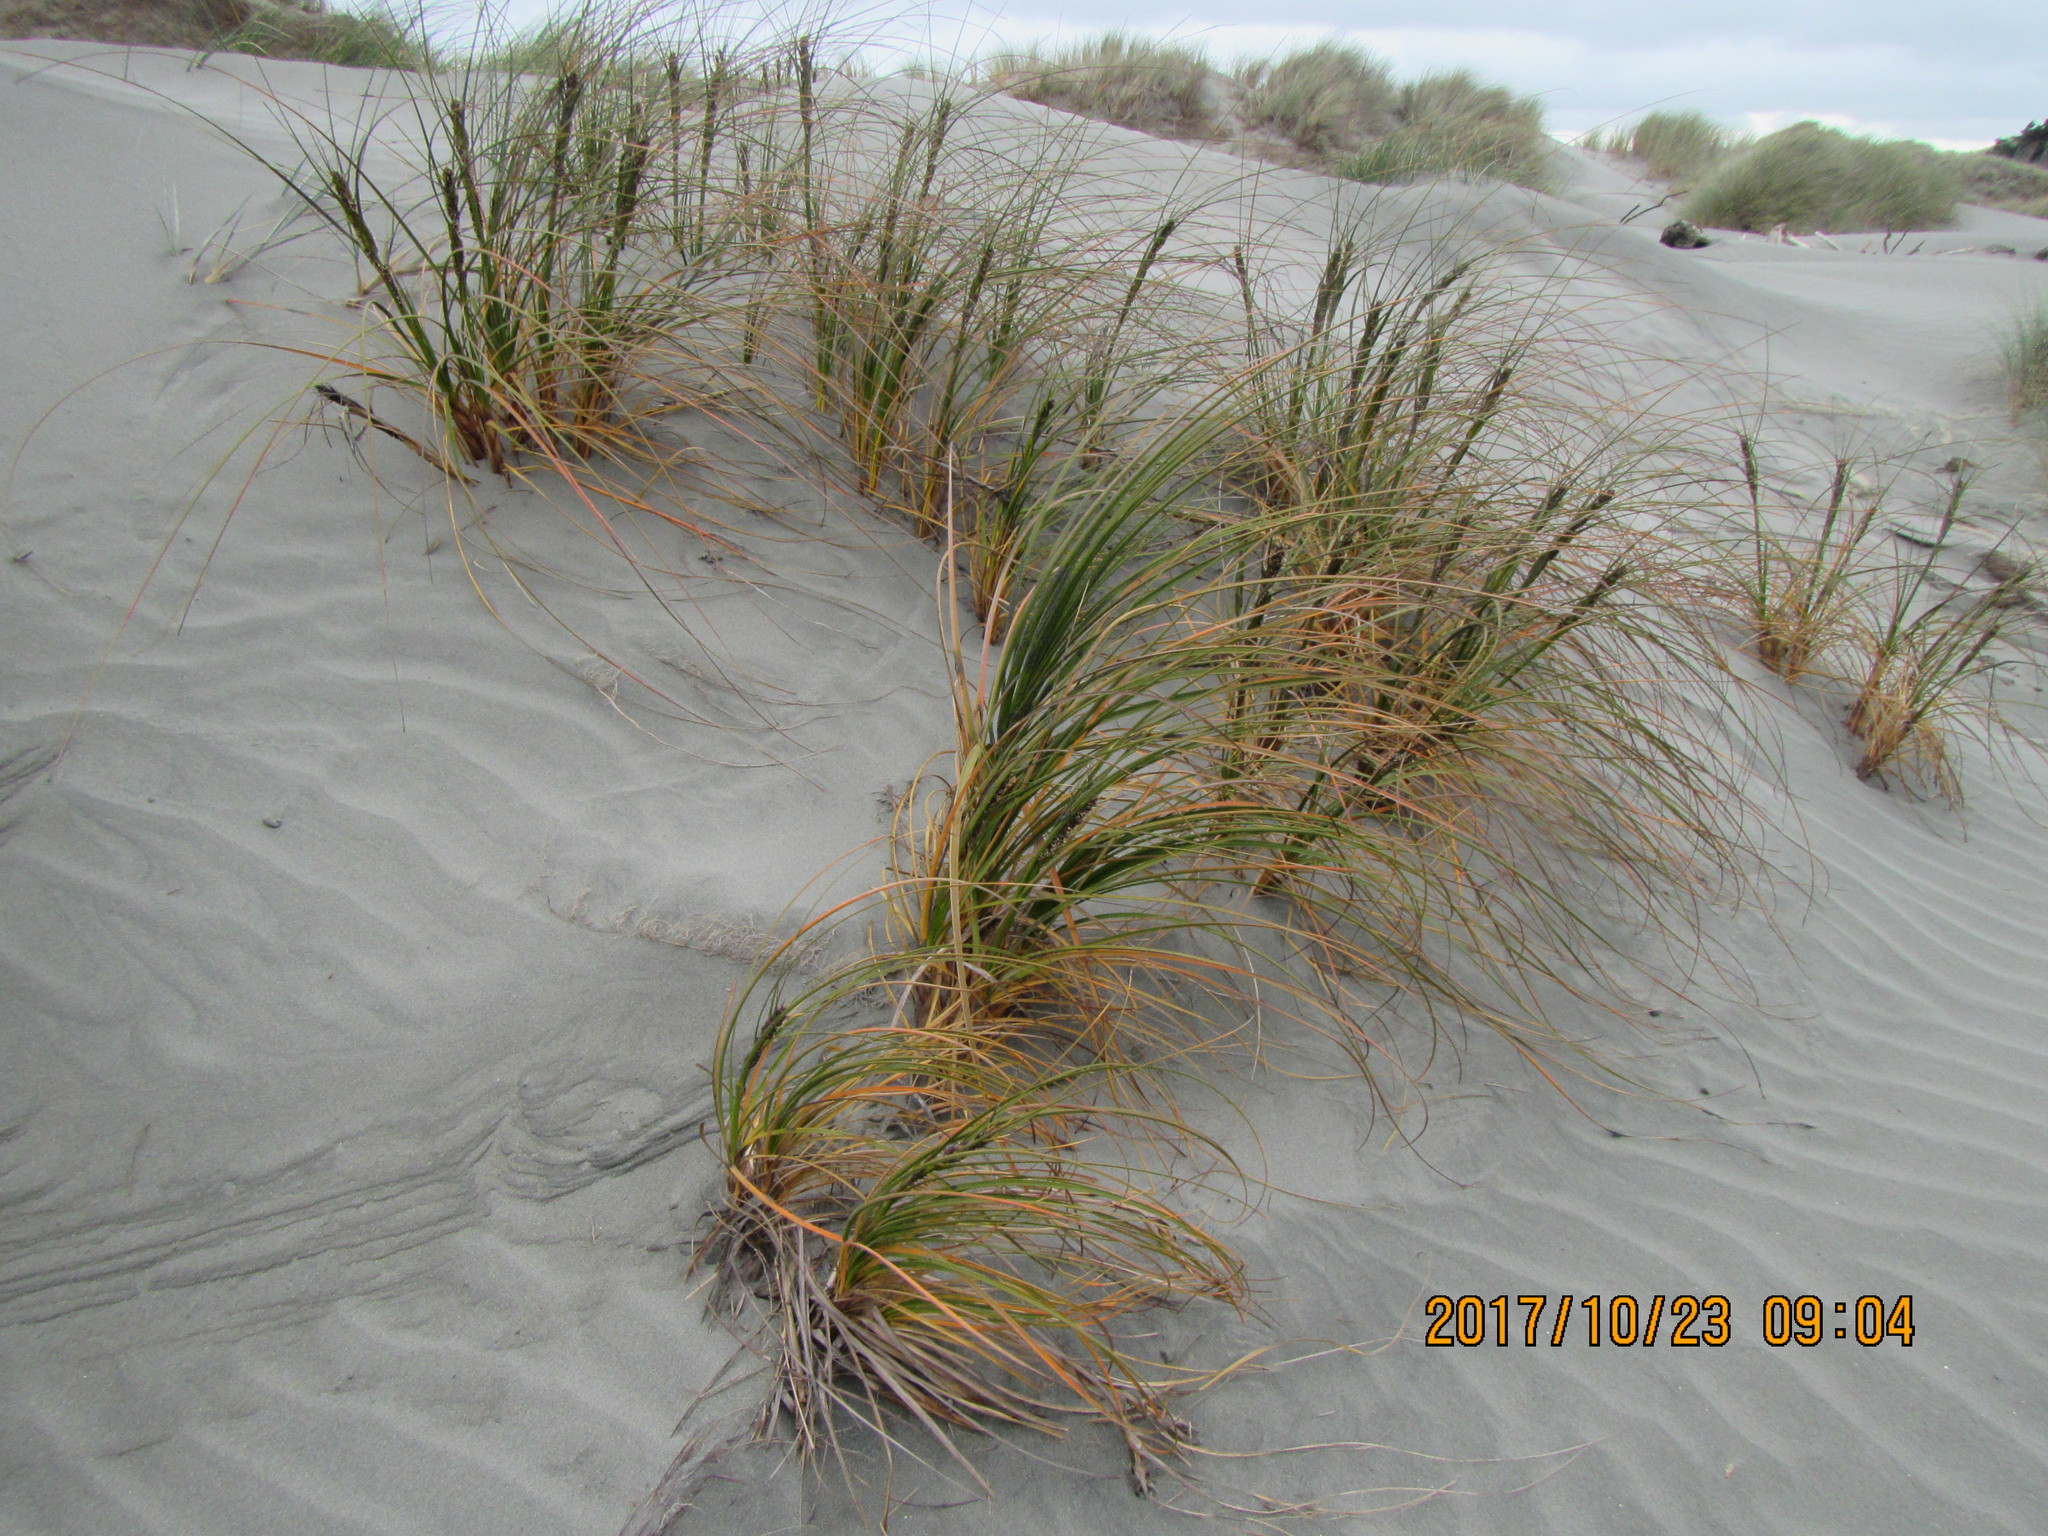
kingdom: Plantae
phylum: Tracheophyta
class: Liliopsida
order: Poales
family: Cyperaceae
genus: Ficinia
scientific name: Ficinia spiralis
